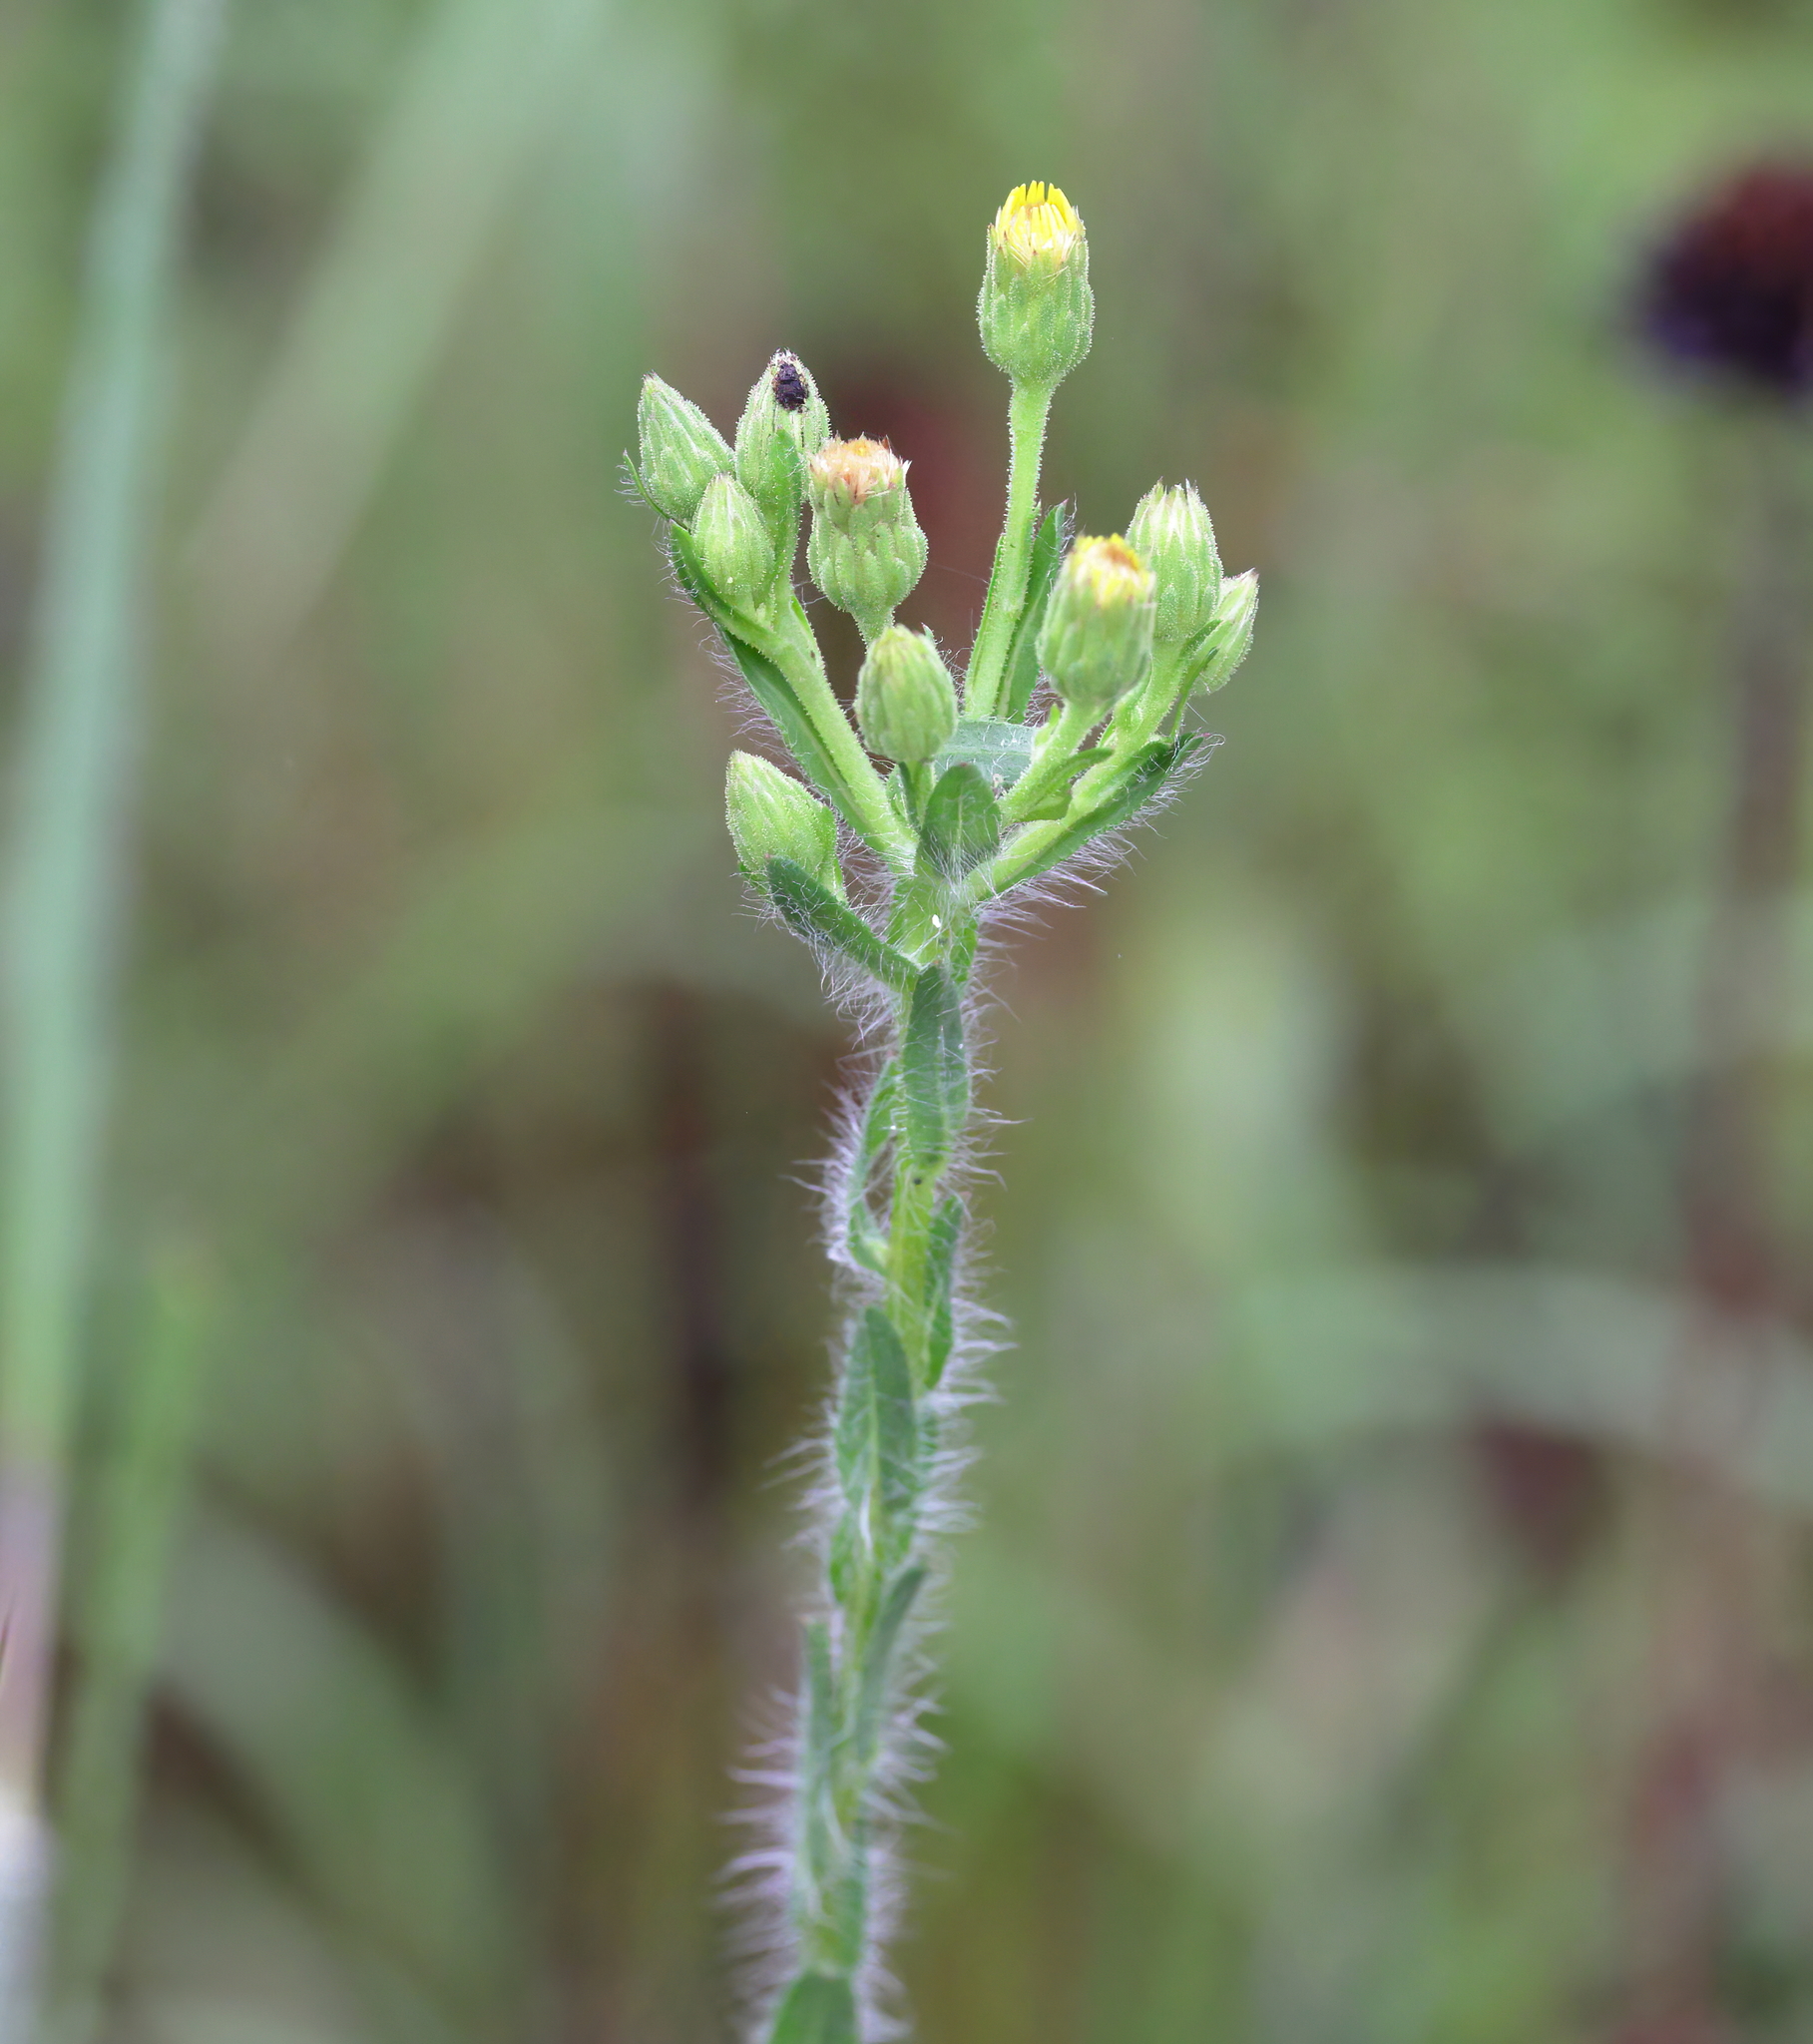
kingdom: Plantae
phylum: Tracheophyta
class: Magnoliopsida
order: Asterales
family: Asteraceae
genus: Chrysopsis
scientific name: Chrysopsis mariana
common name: Maryland golden-aster
